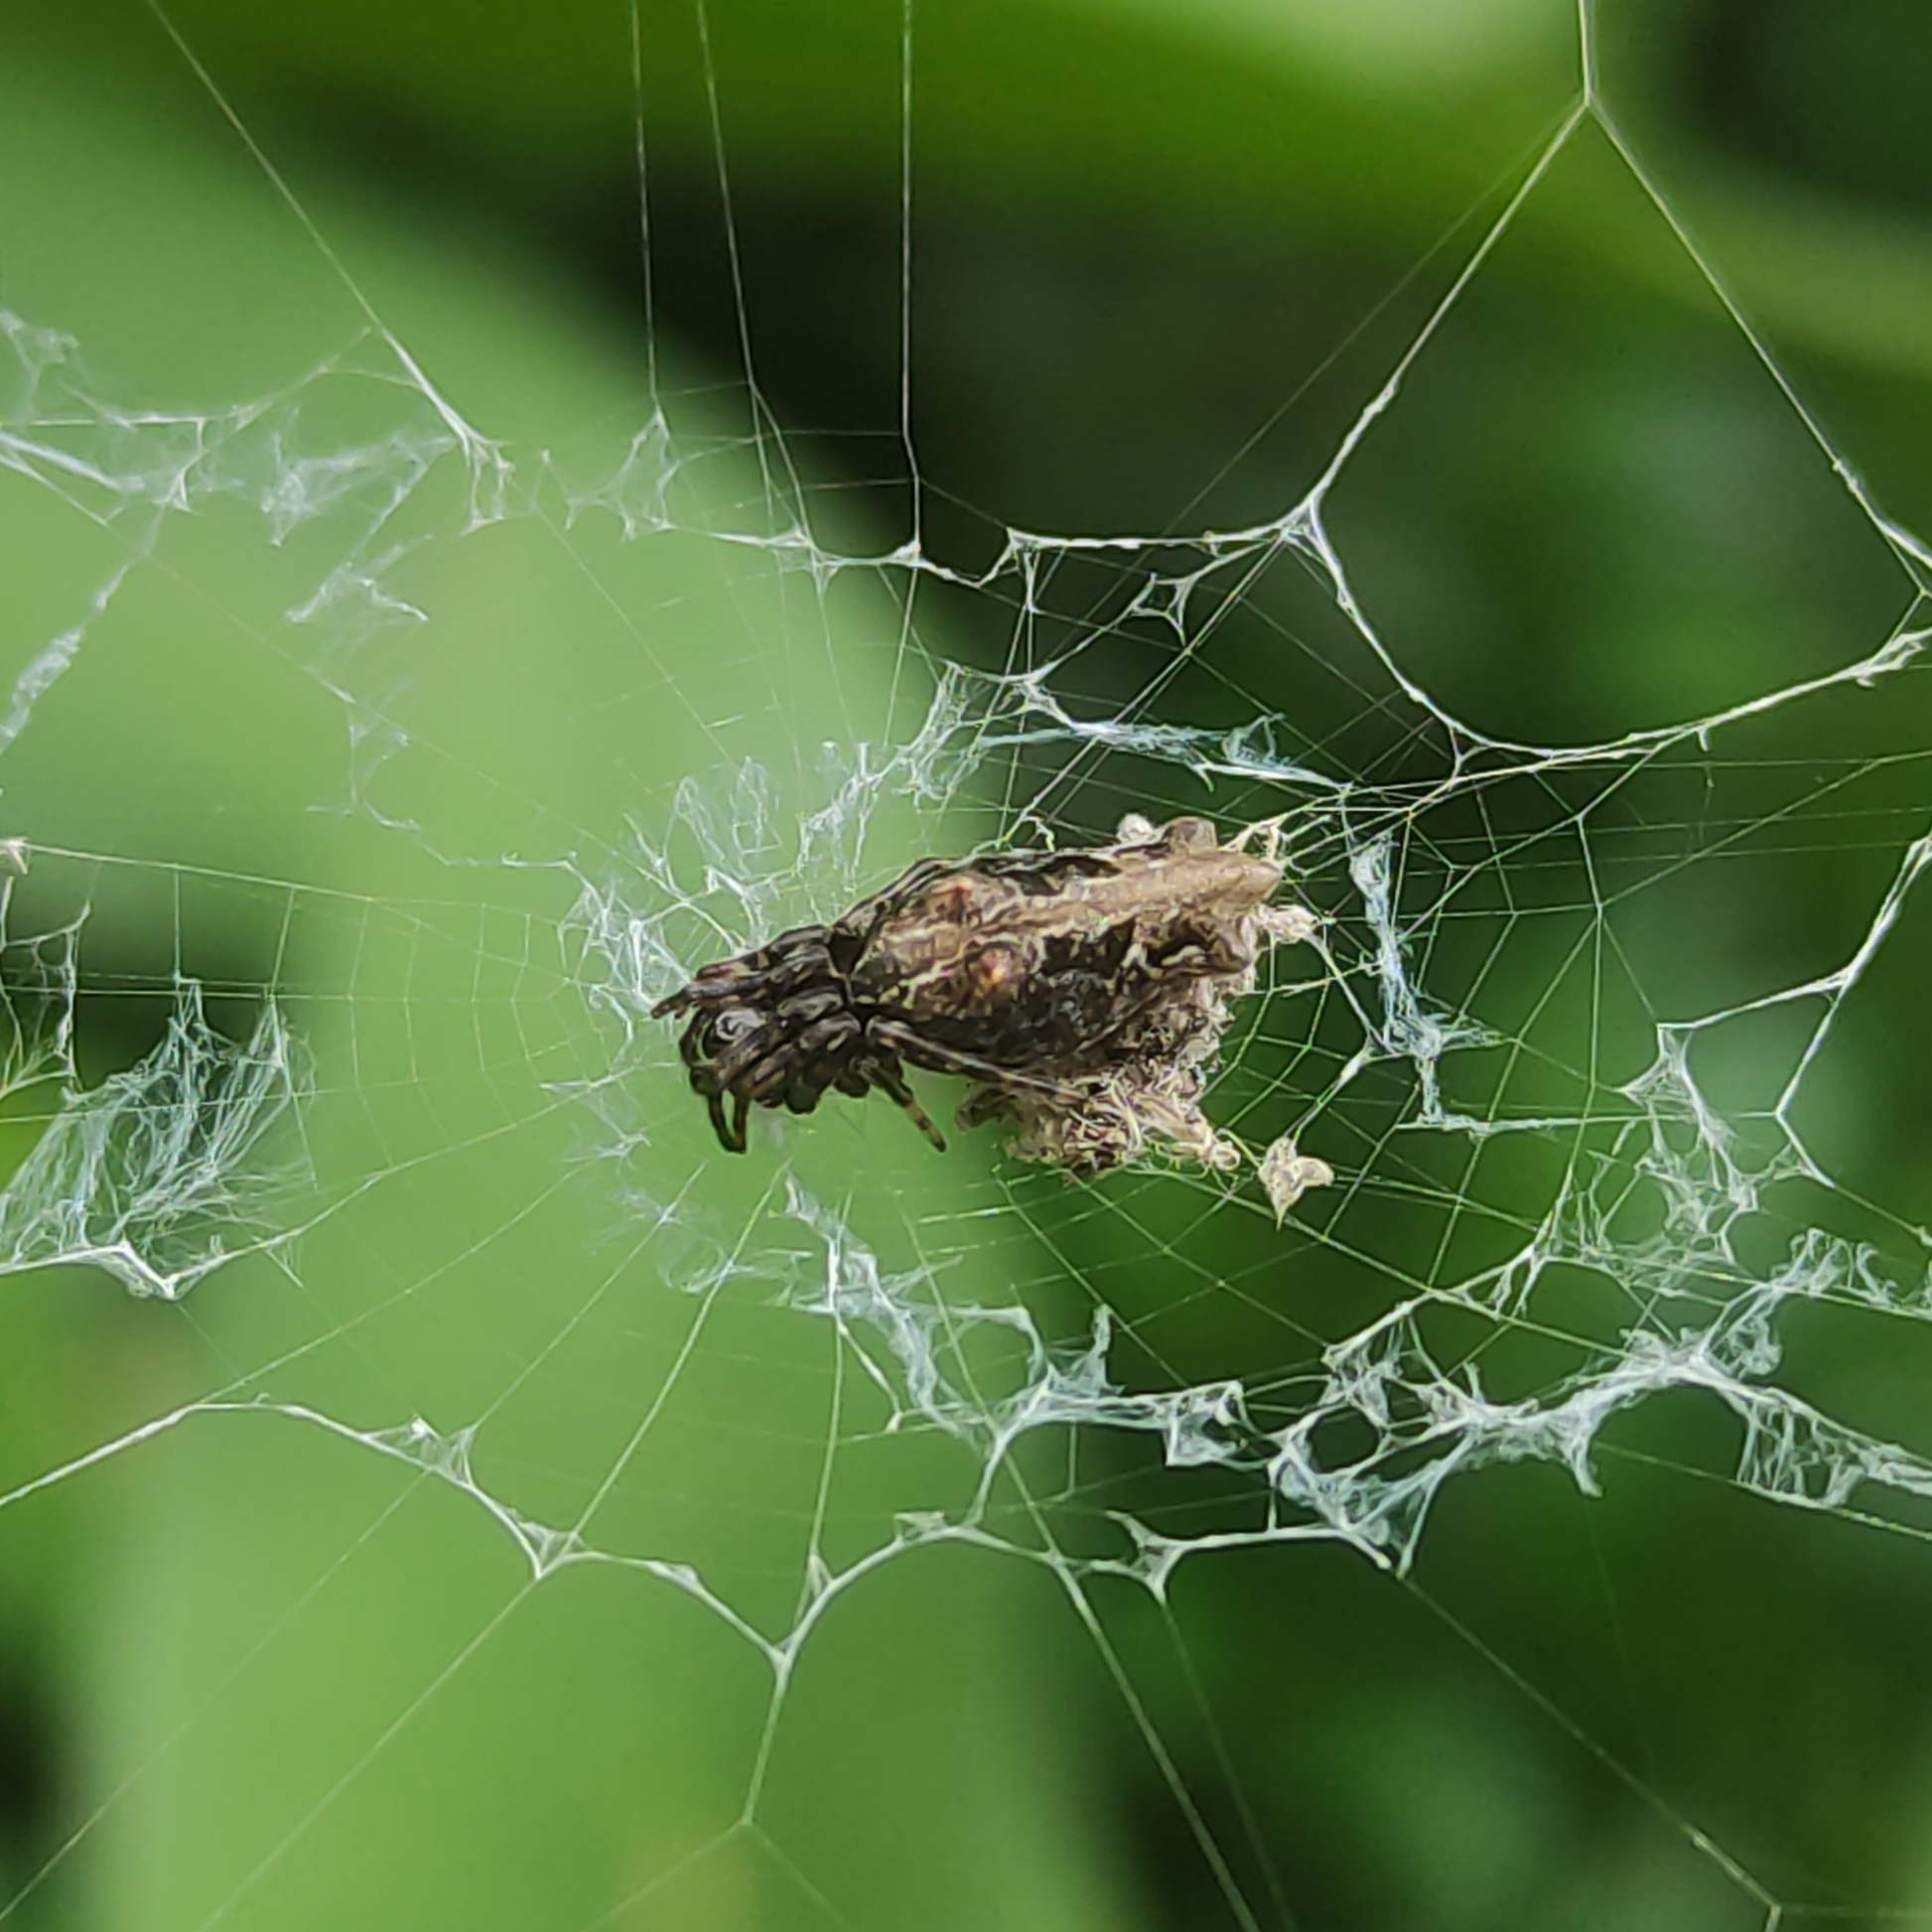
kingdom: Animalia
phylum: Arthropoda
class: Arachnida
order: Araneae
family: Araneidae
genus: Cyclosa
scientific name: Cyclosa bifurcata
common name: Orb weavers
